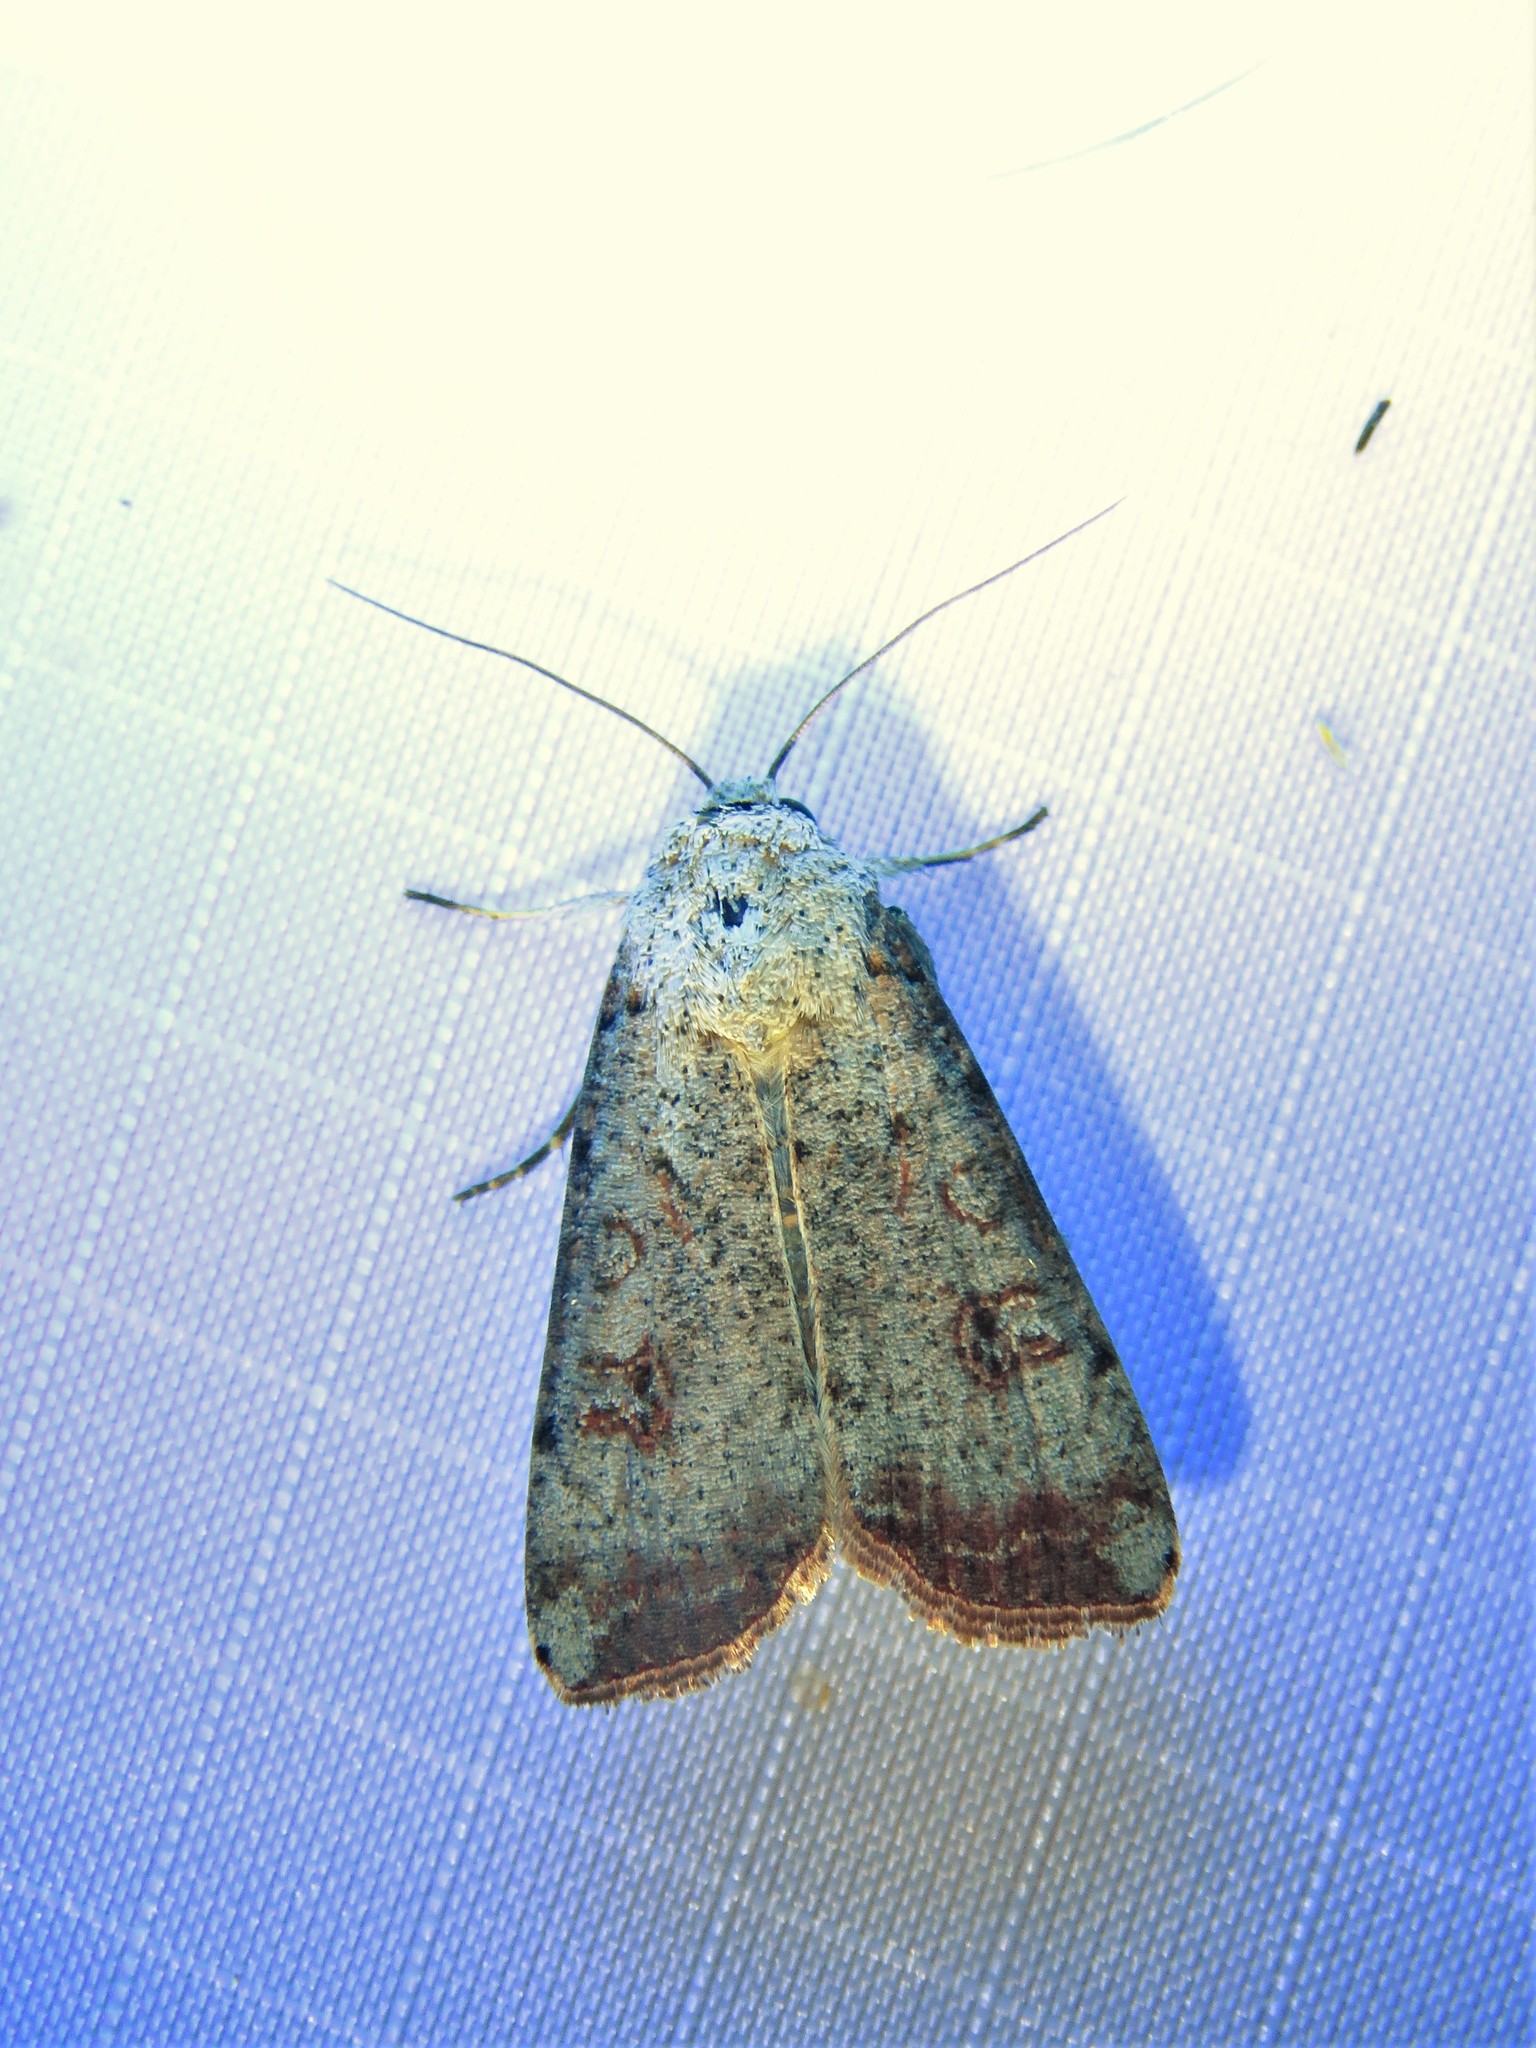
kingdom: Animalia
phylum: Arthropoda
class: Insecta
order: Lepidoptera
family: Noctuidae
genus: Anicla
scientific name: Anicla infecta
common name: Green cutworm
